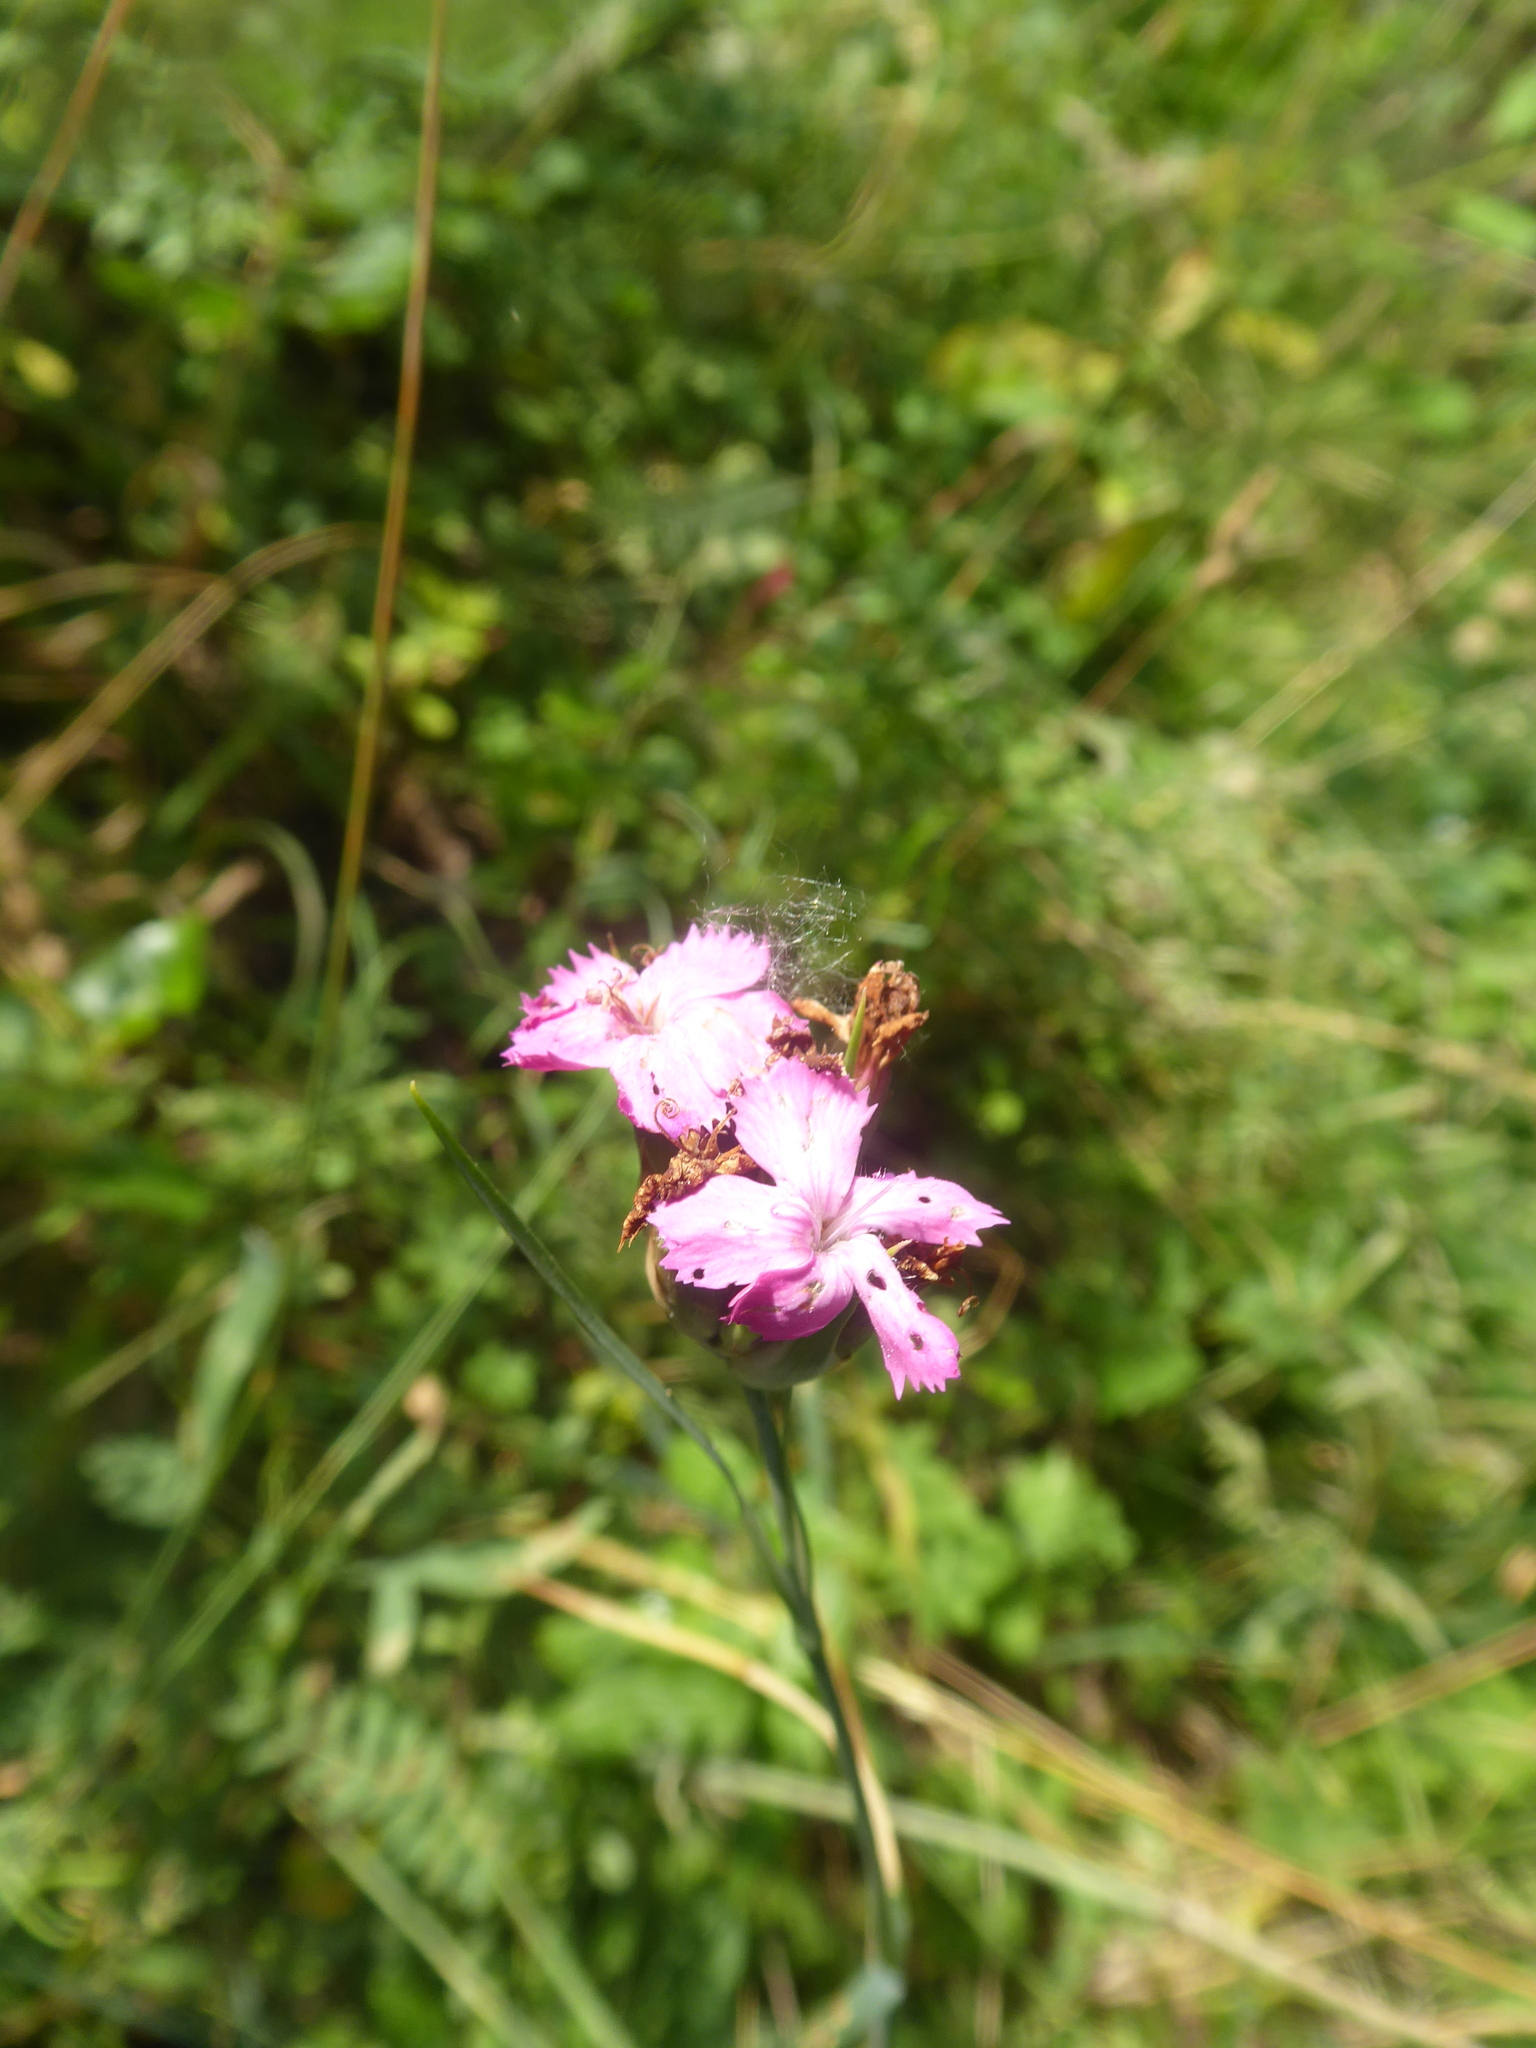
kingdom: Plantae
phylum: Tracheophyta
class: Magnoliopsida
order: Caryophyllales
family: Caryophyllaceae
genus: Dianthus
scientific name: Dianthus carthusianorum
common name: Carthusian pink
